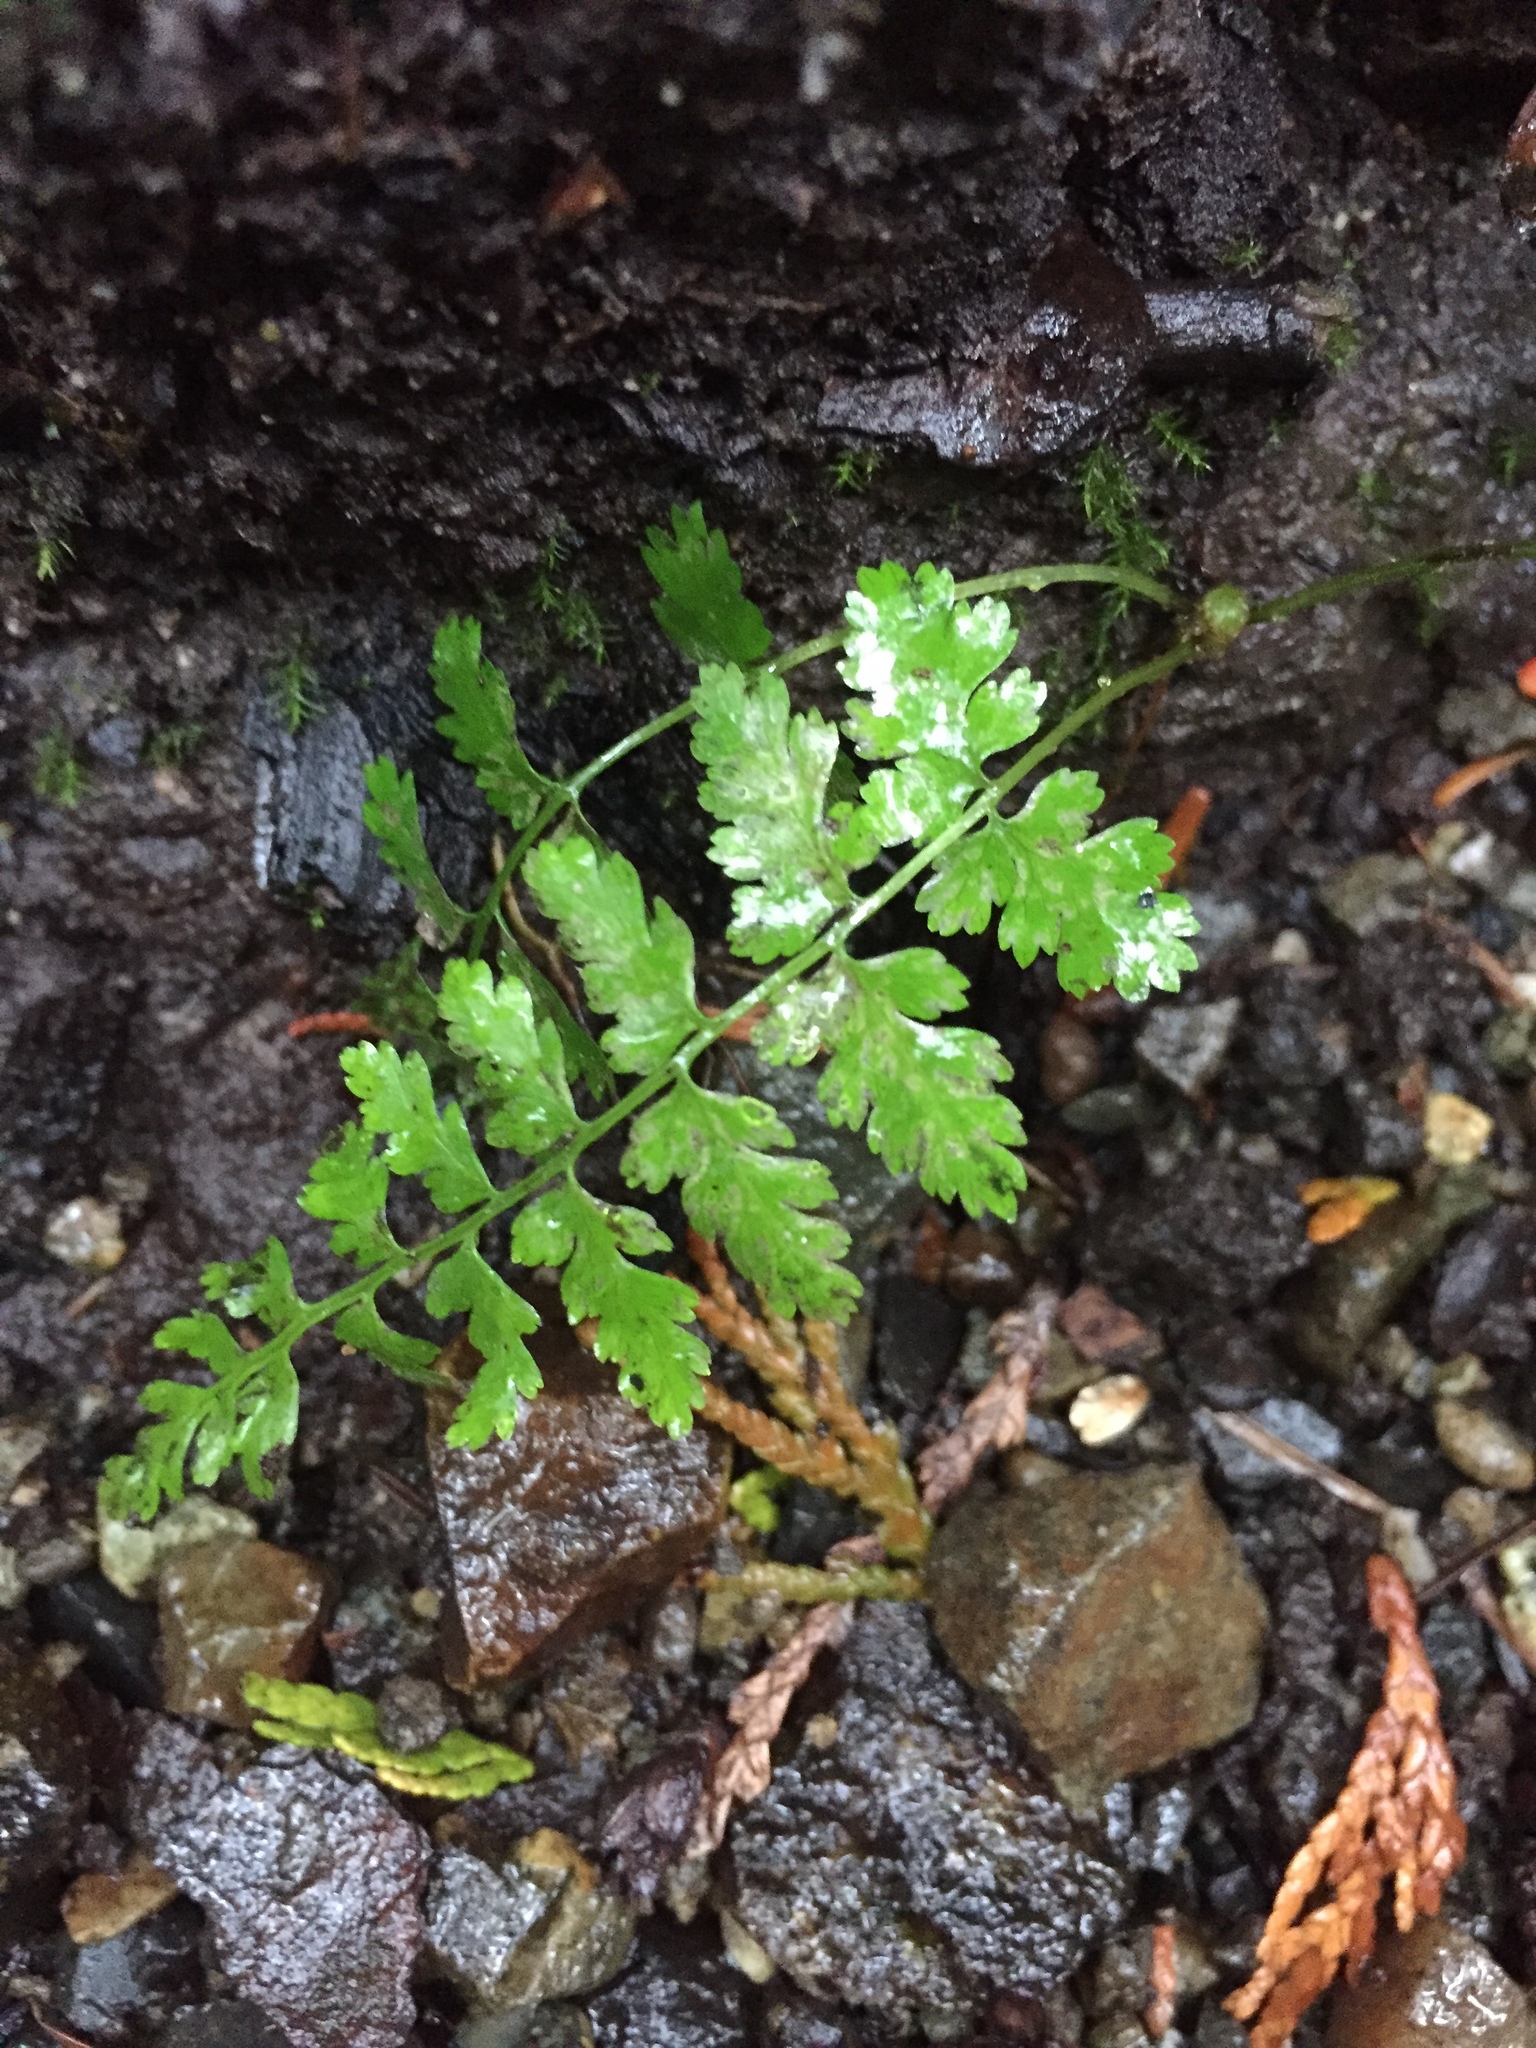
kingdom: Plantae
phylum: Tracheophyta
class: Polypodiopsida
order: Polypodiales
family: Athyriaceae
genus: Athyrium
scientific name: Athyrium filix-femina
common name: Lady fern
